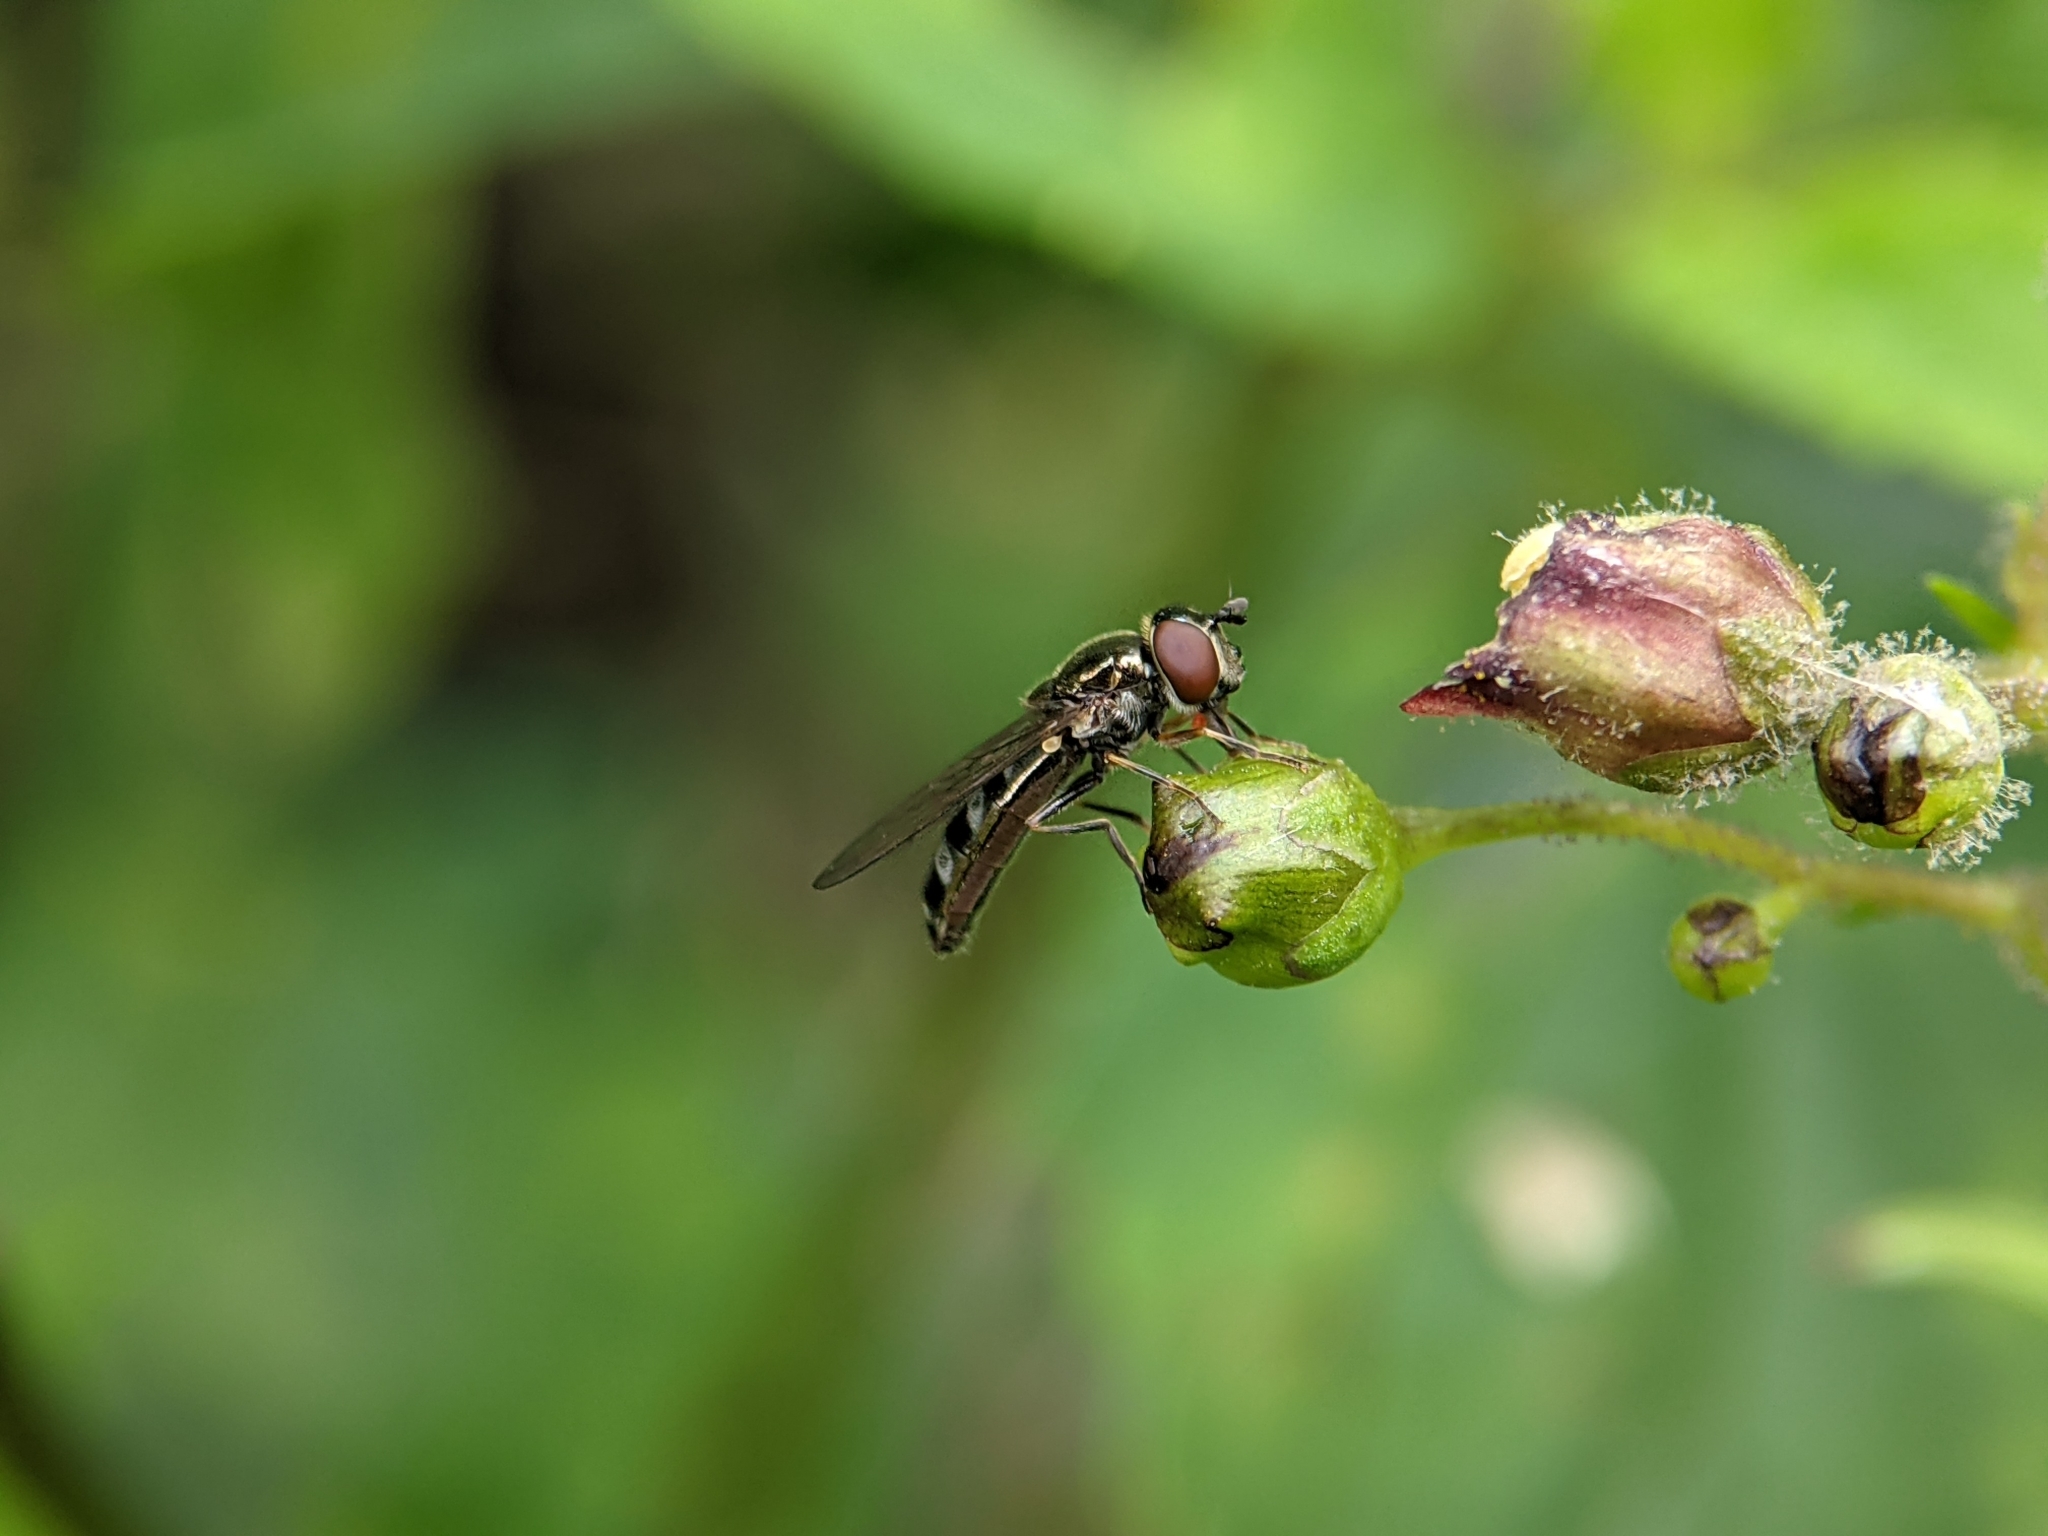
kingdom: Animalia
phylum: Arthropoda
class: Insecta
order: Diptera
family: Syrphidae
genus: Platycheirus
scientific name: Platycheirus albimanus
